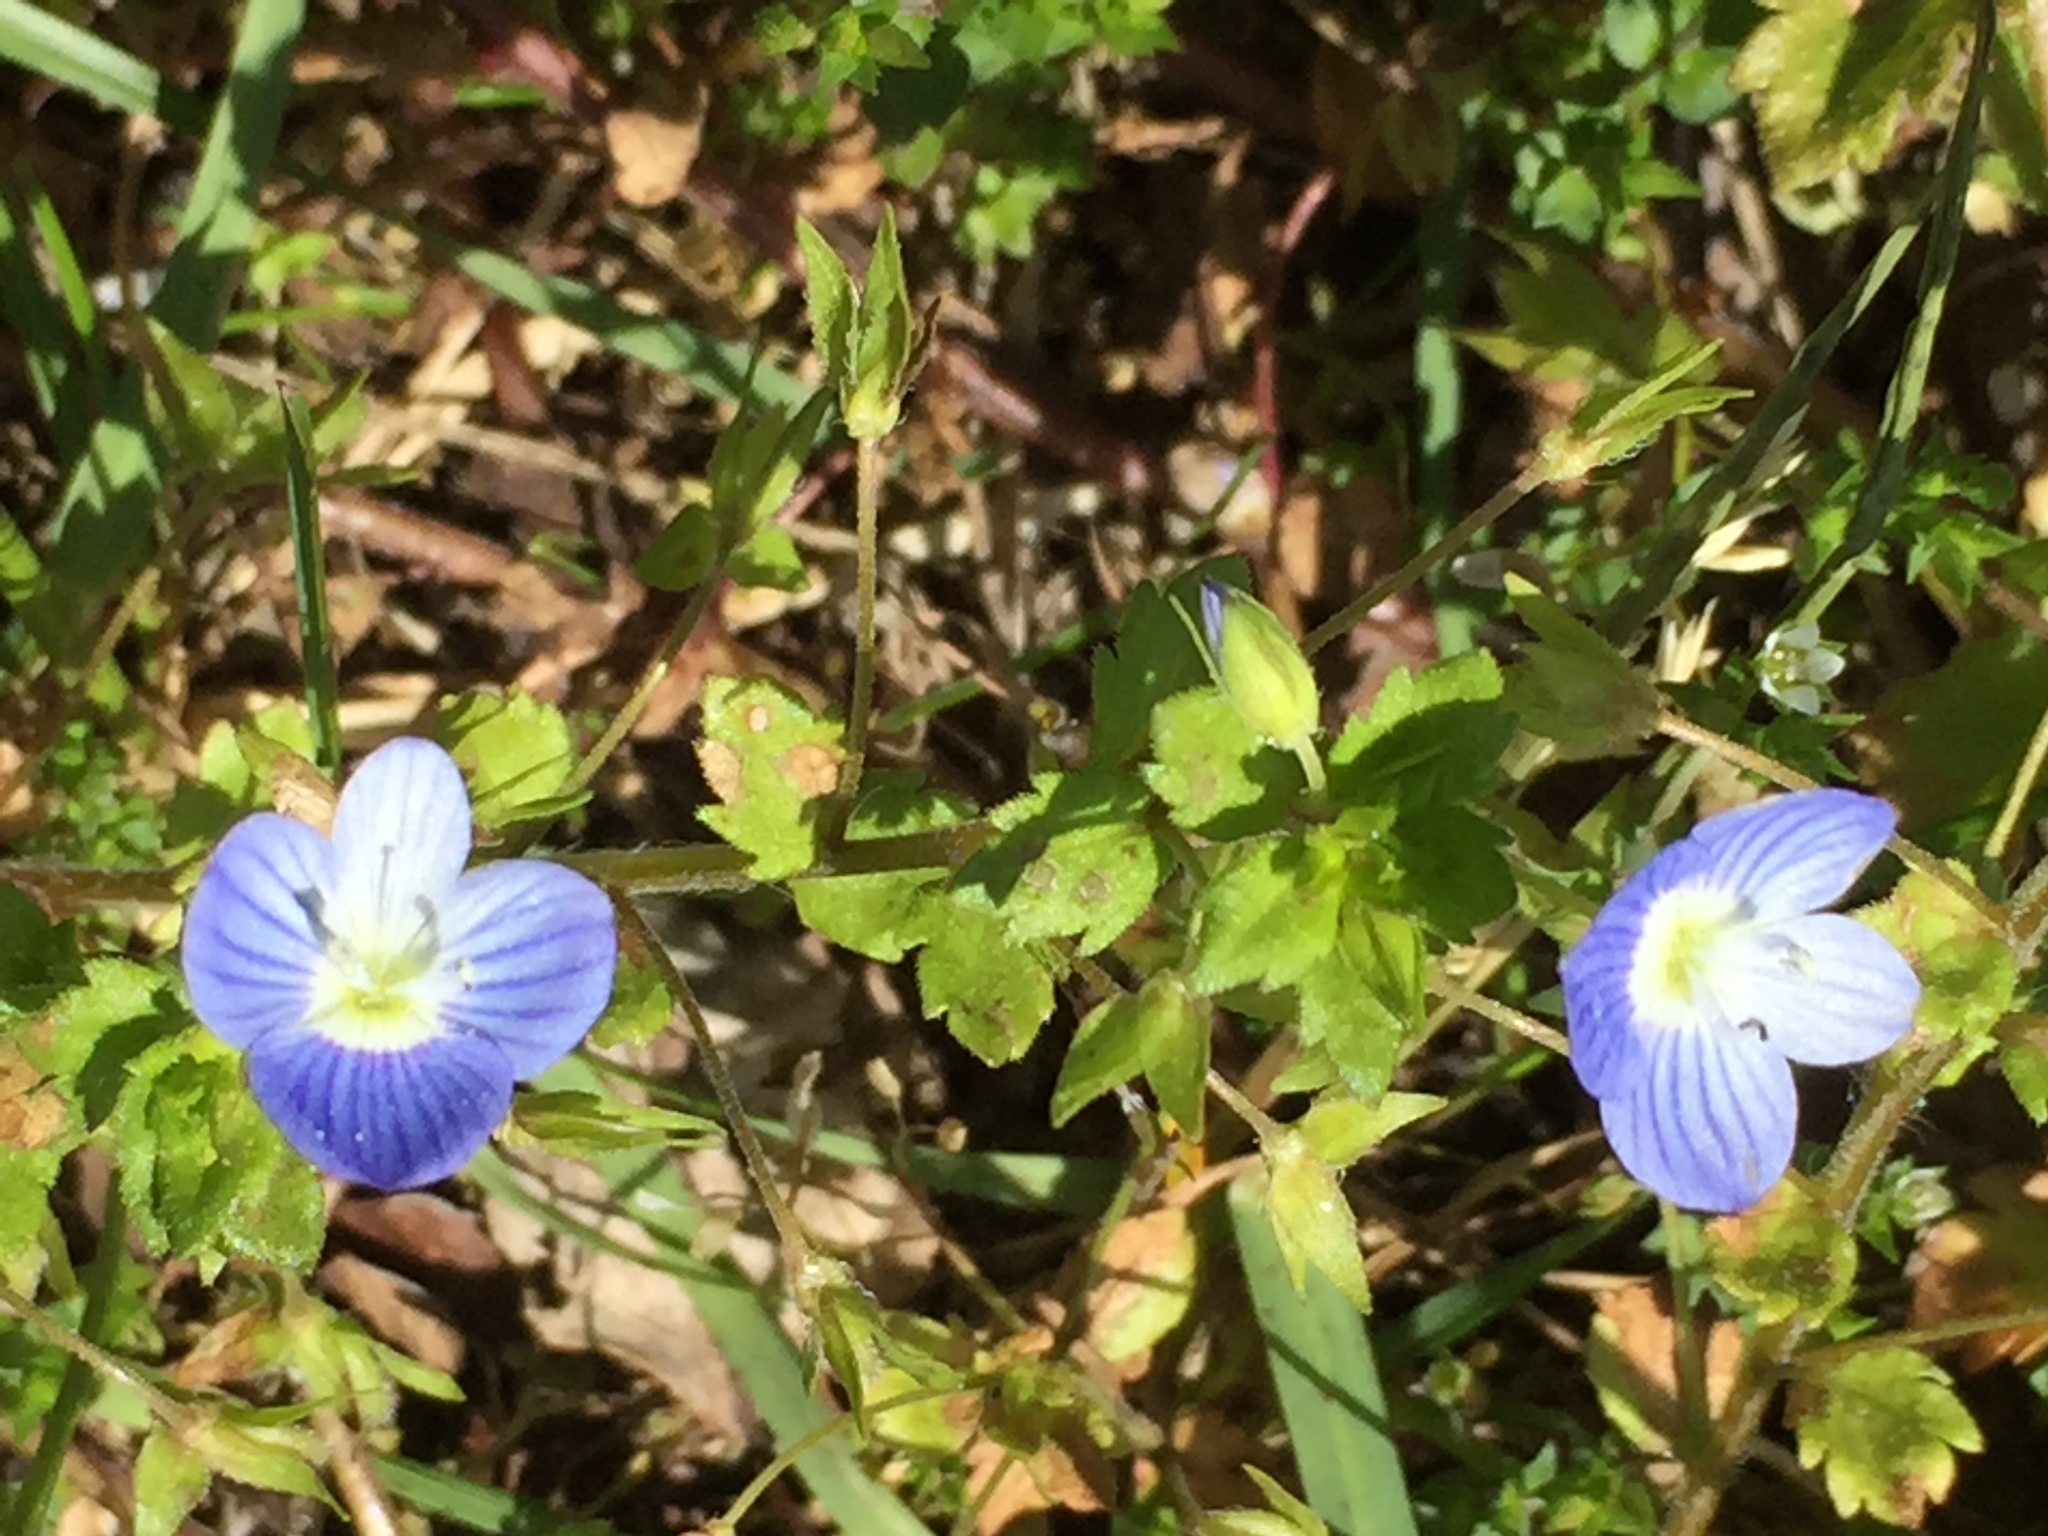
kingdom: Plantae
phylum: Tracheophyta
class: Magnoliopsida
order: Lamiales
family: Plantaginaceae
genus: Veronica
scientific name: Veronica persica
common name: Common field-speedwell
